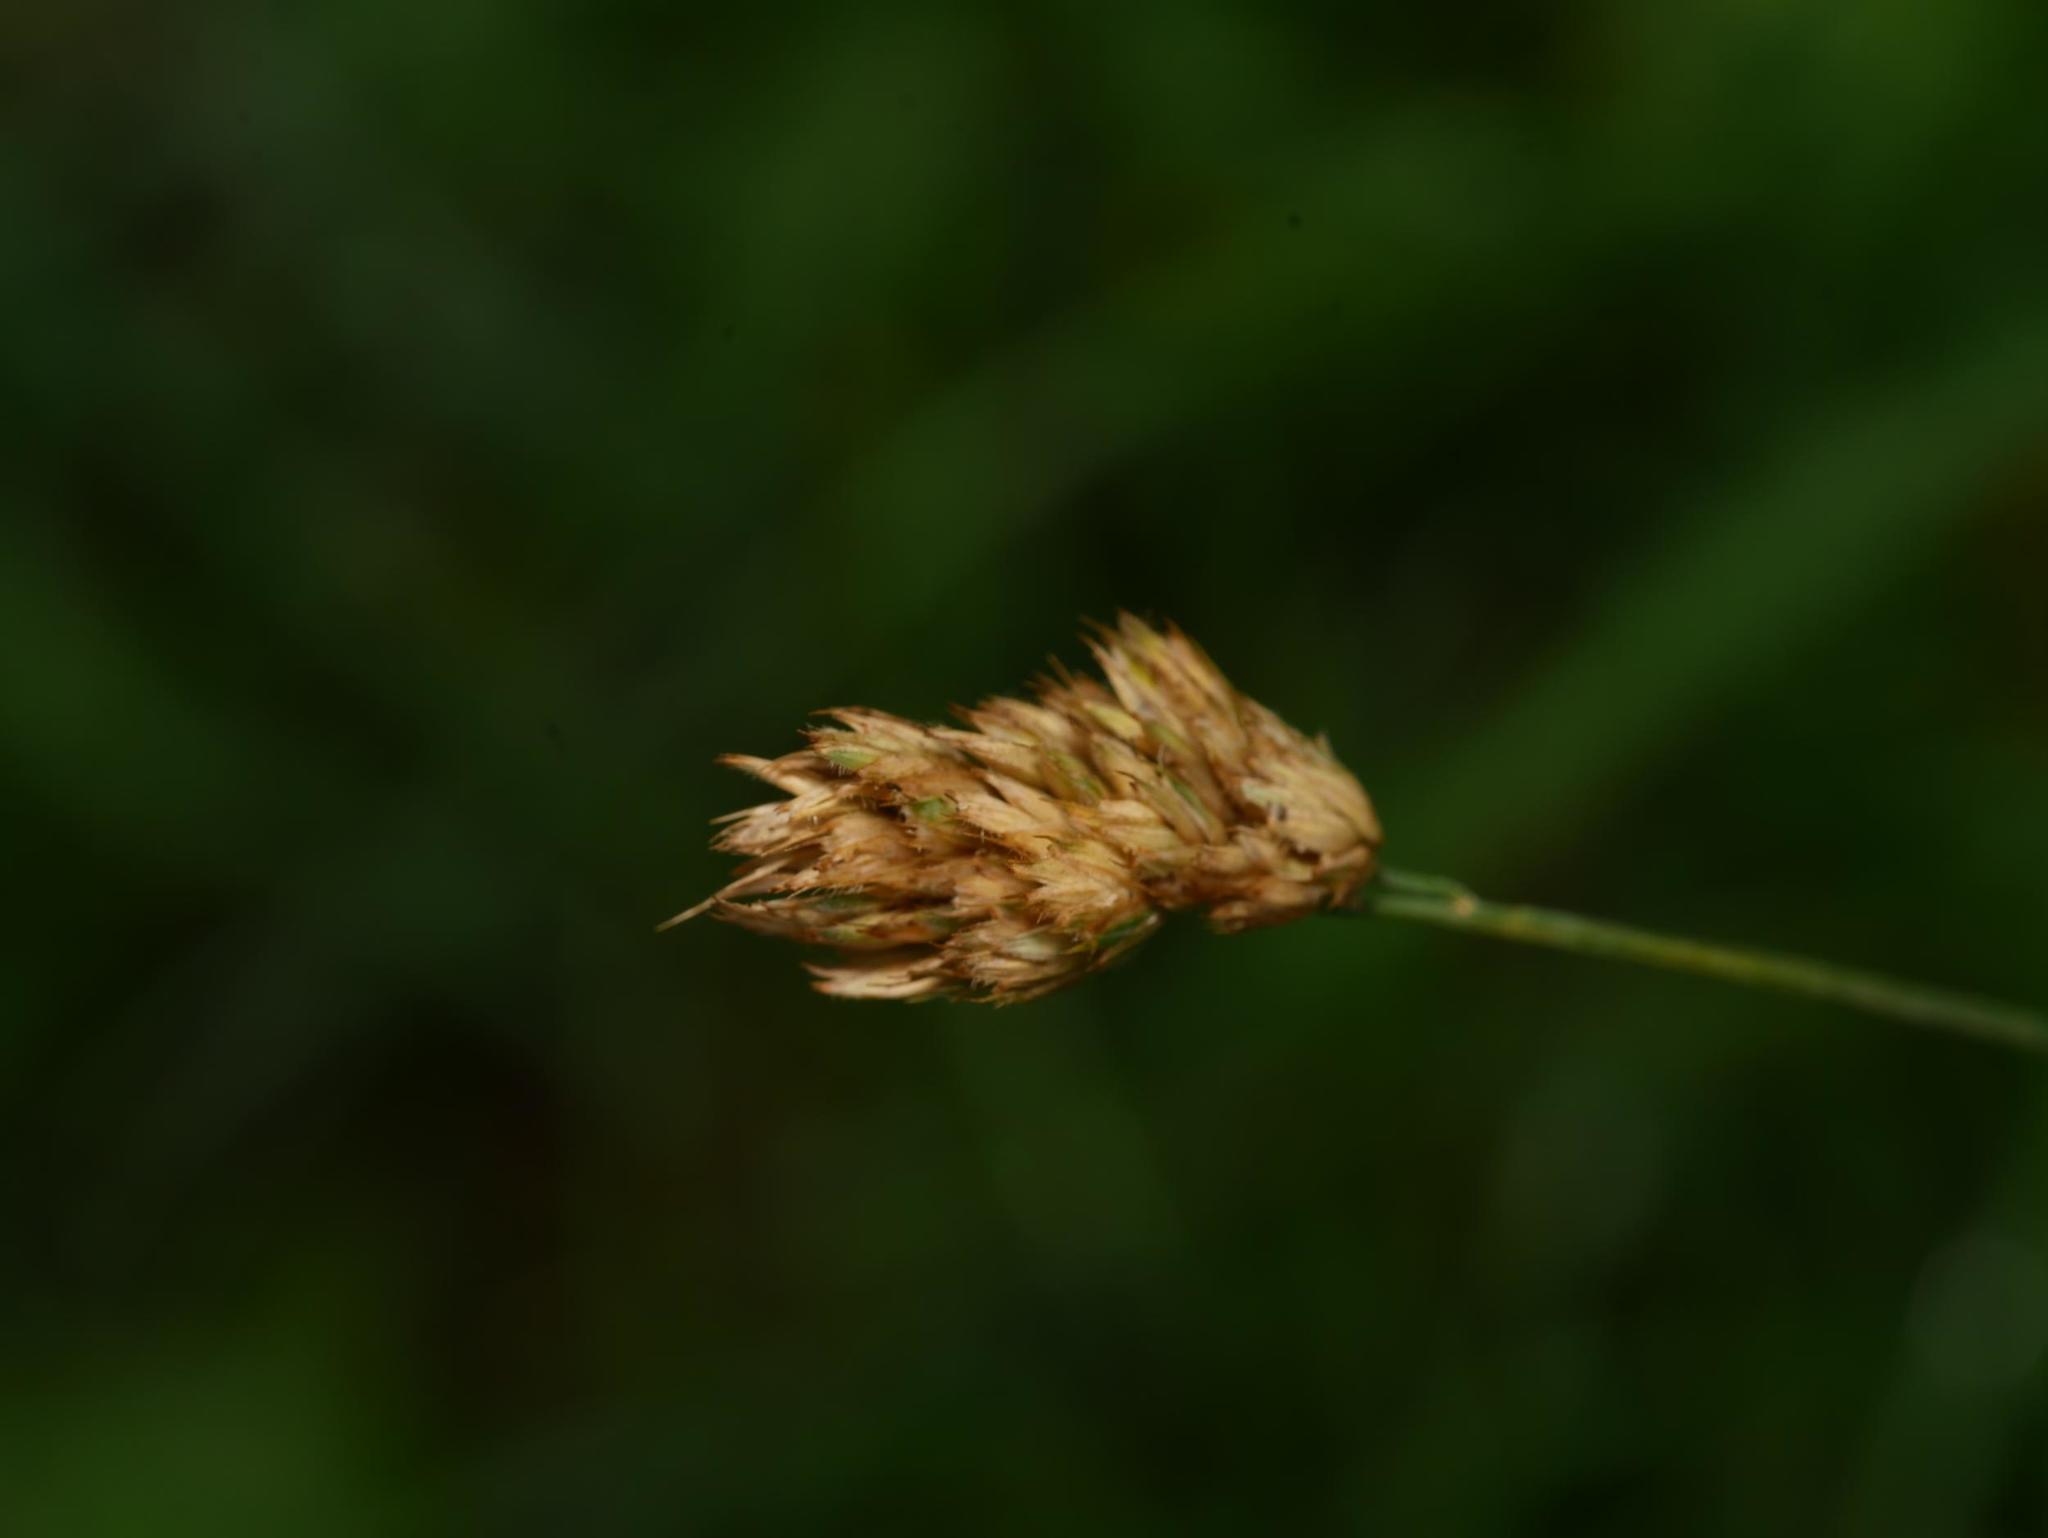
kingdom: Plantae
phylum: Tracheophyta
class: Liliopsida
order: Poales
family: Poaceae
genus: Dactylis
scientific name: Dactylis glomerata
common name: Orchardgrass
